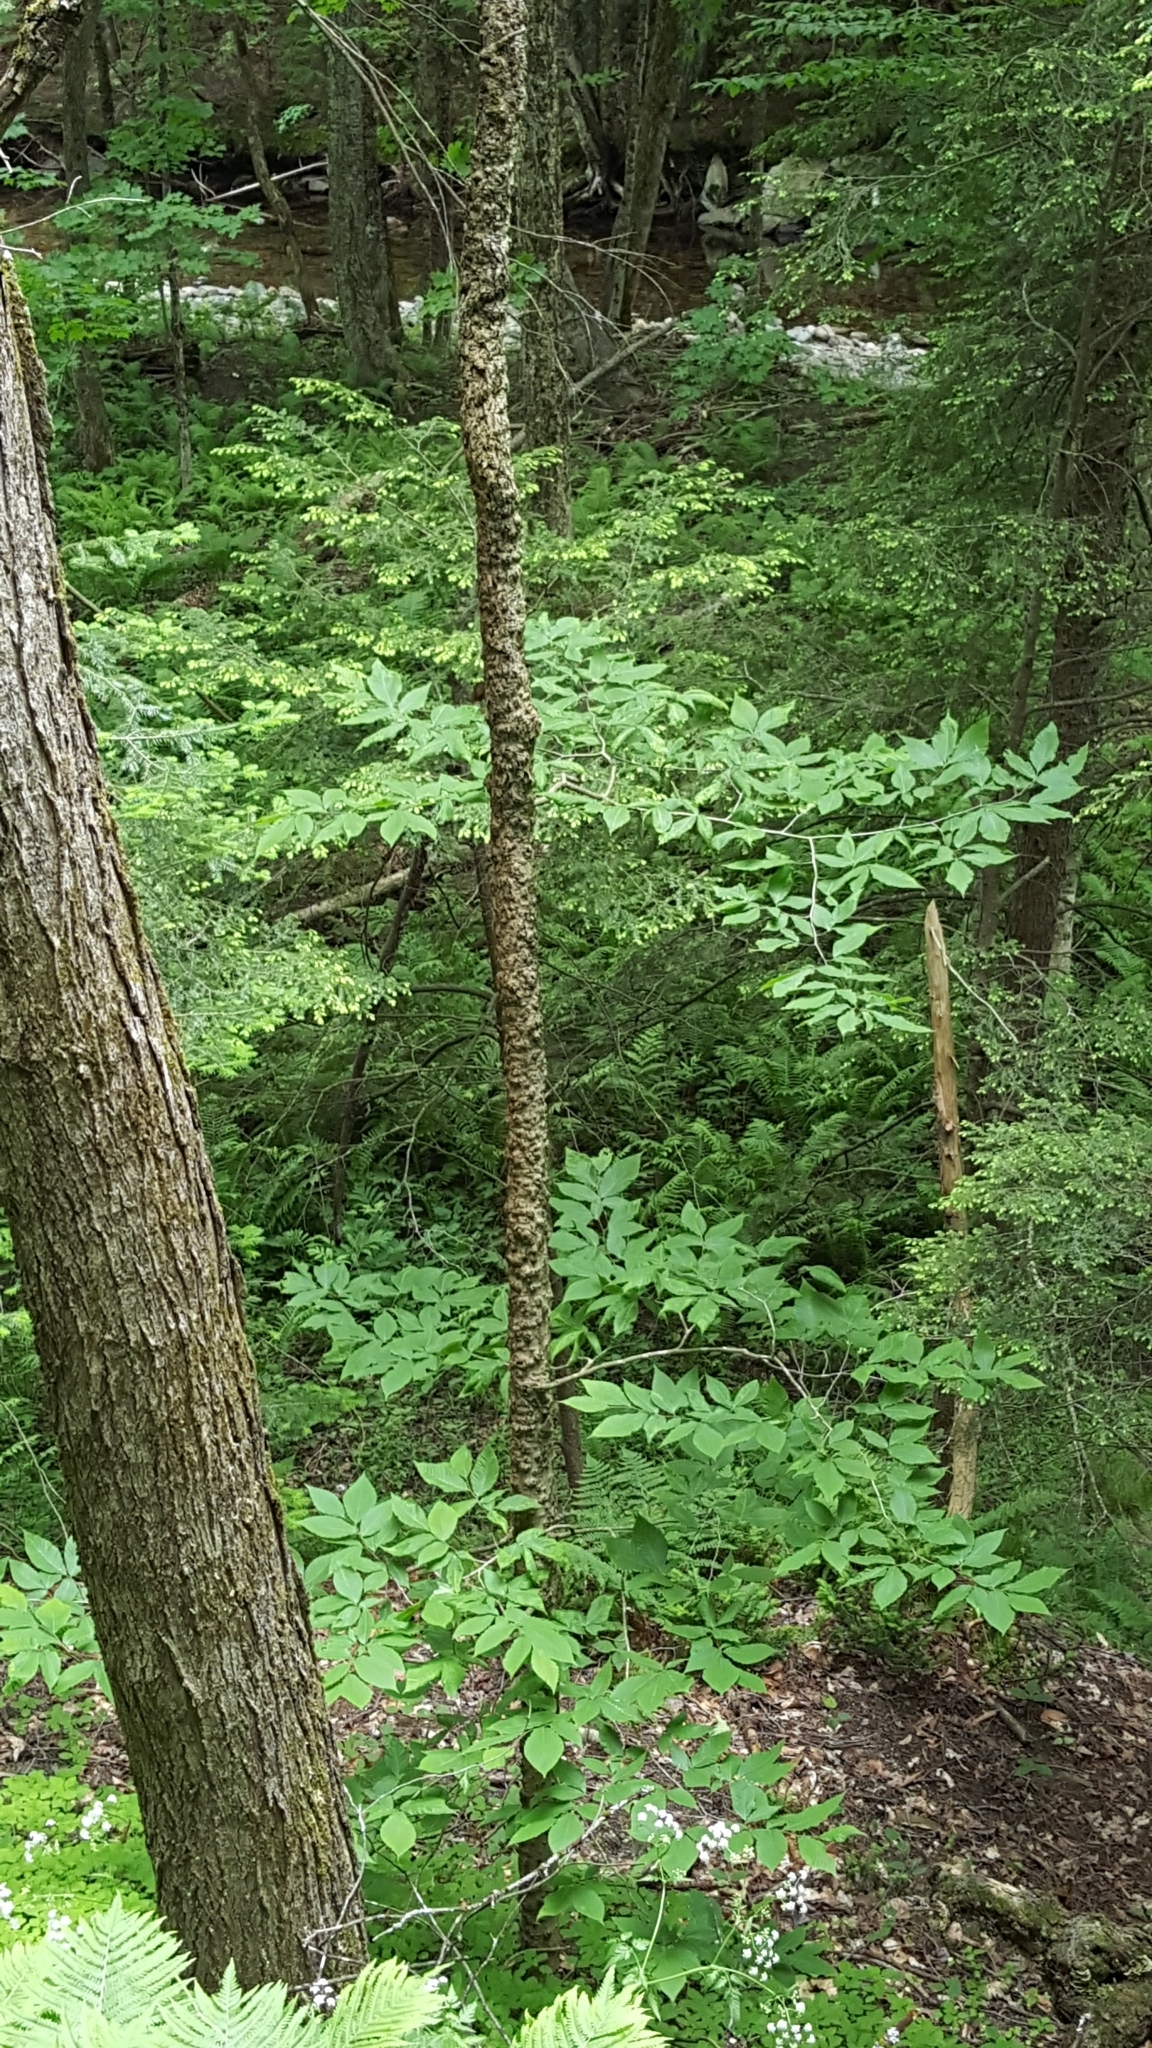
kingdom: Plantae
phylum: Tracheophyta
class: Magnoliopsida
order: Fagales
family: Fagaceae
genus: Fagus
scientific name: Fagus grandifolia
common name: American beech
